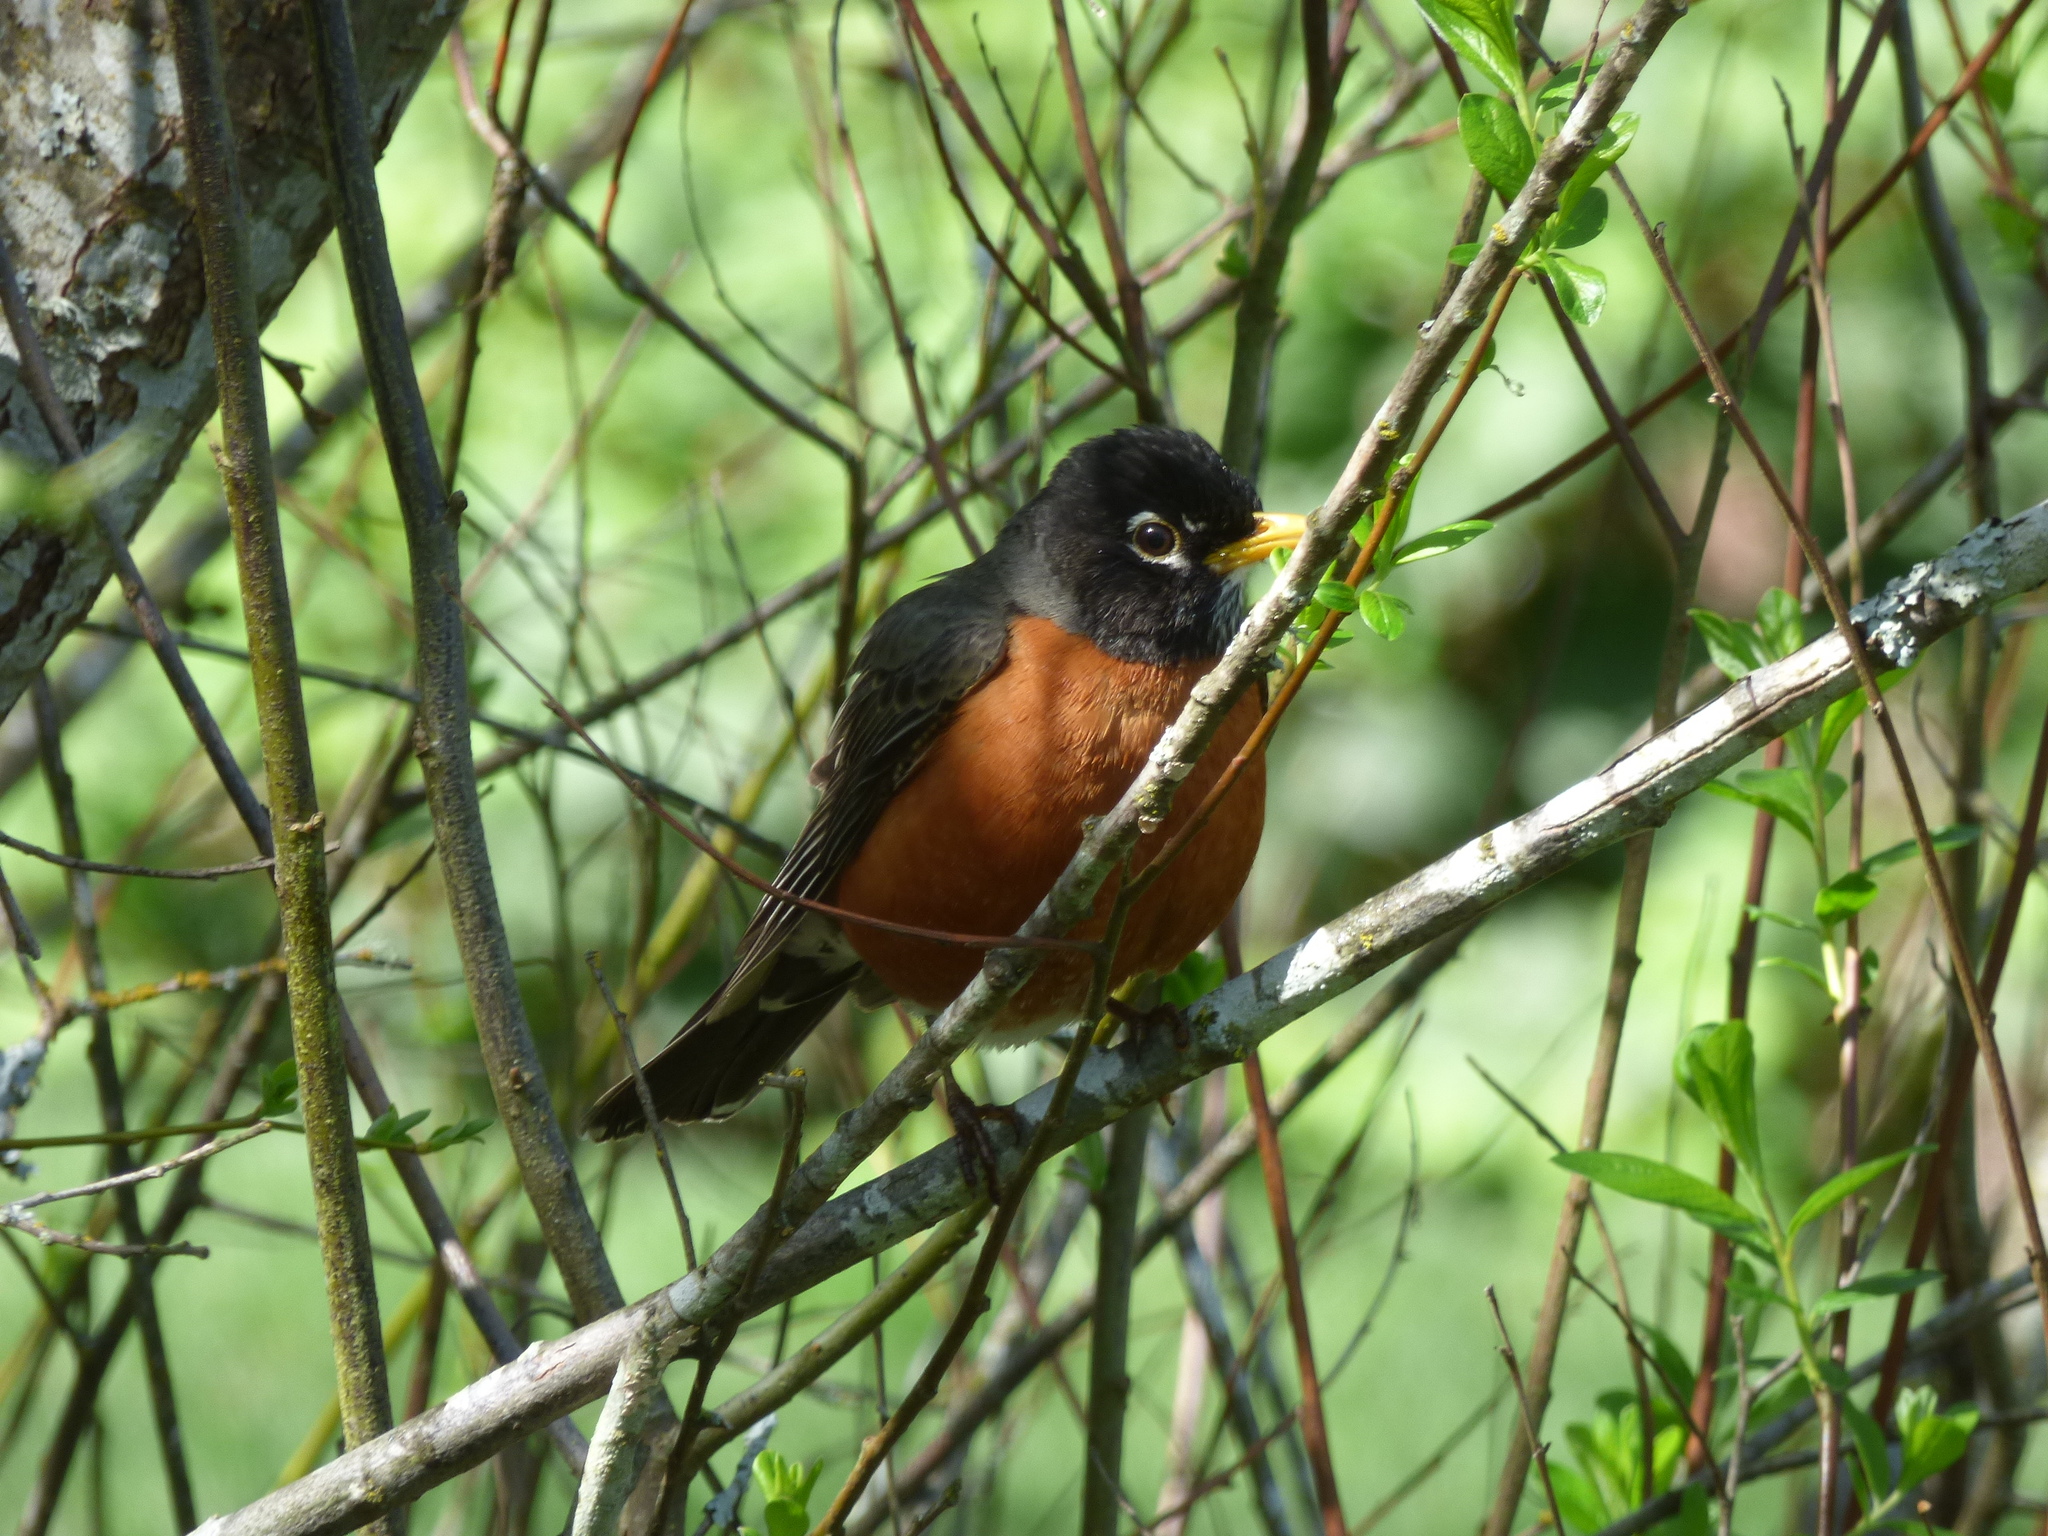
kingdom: Animalia
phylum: Chordata
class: Aves
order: Passeriformes
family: Turdidae
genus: Turdus
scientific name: Turdus migratorius
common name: American robin
